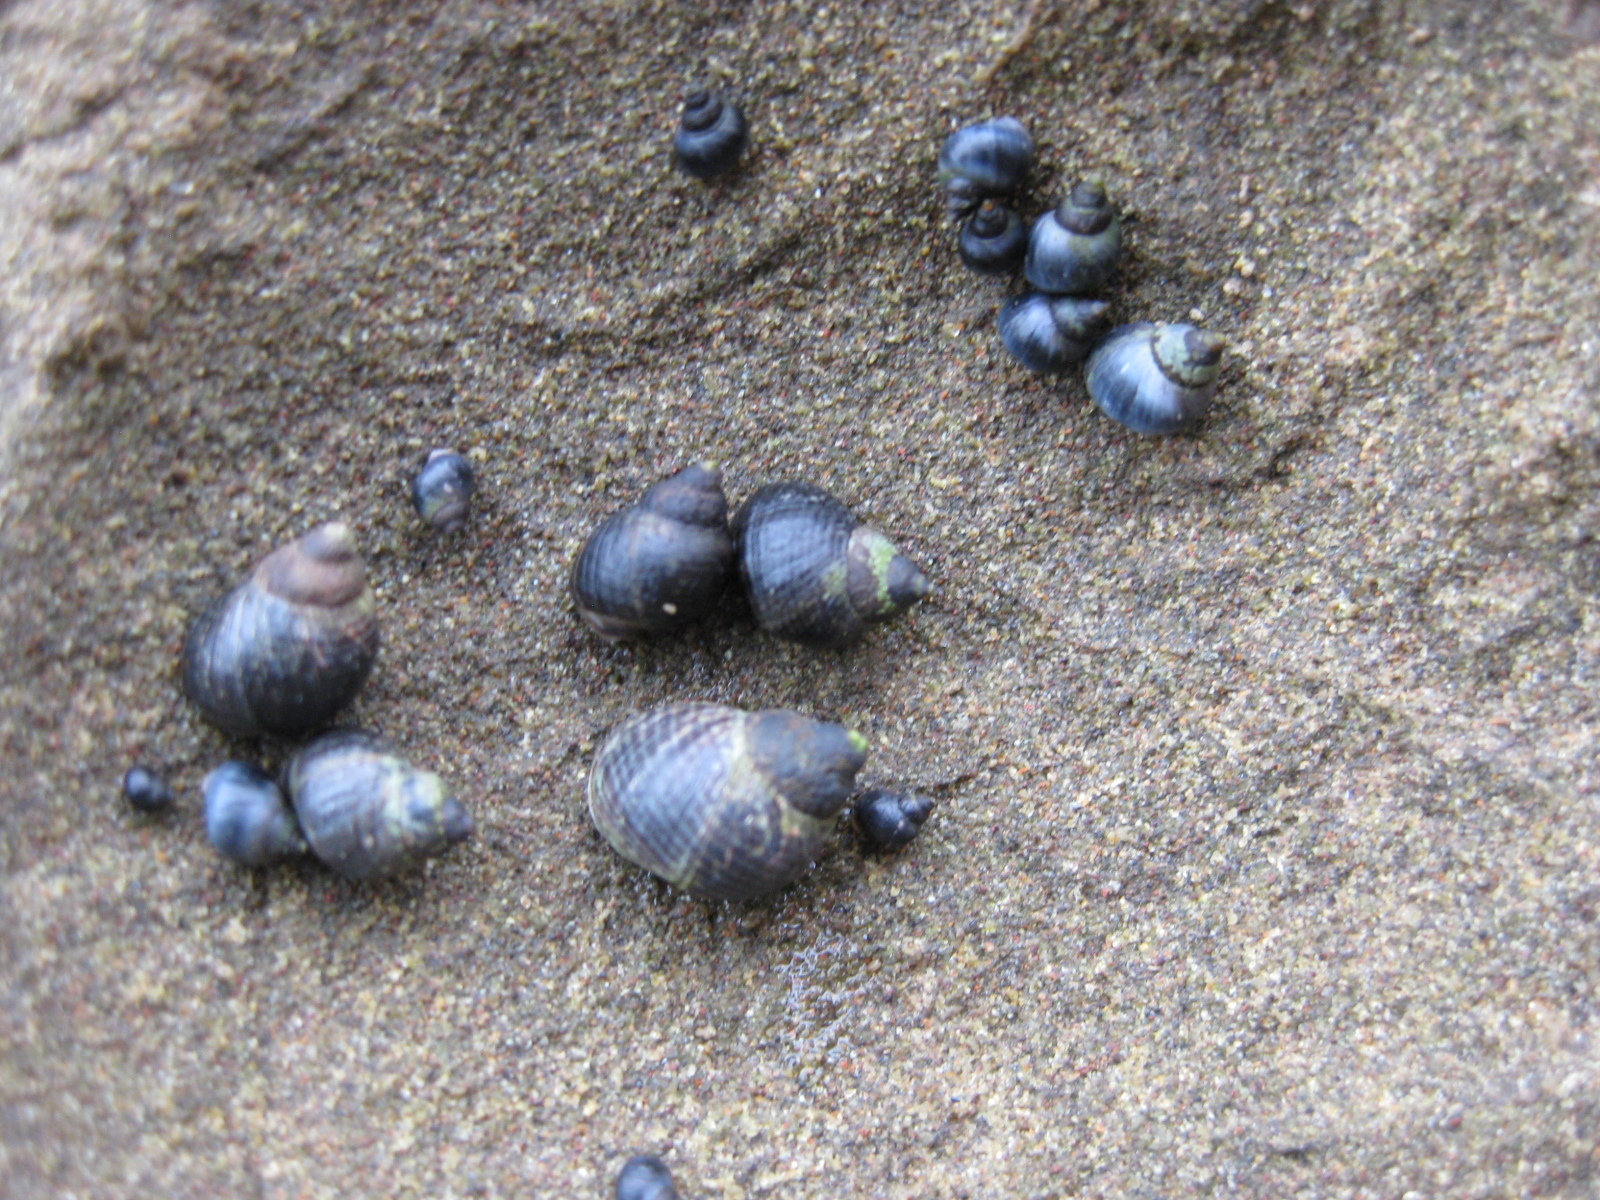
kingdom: Animalia
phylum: Mollusca
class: Gastropoda
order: Littorinimorpha
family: Littorinidae
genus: Austrolittorina
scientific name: Austrolittorina cincta
